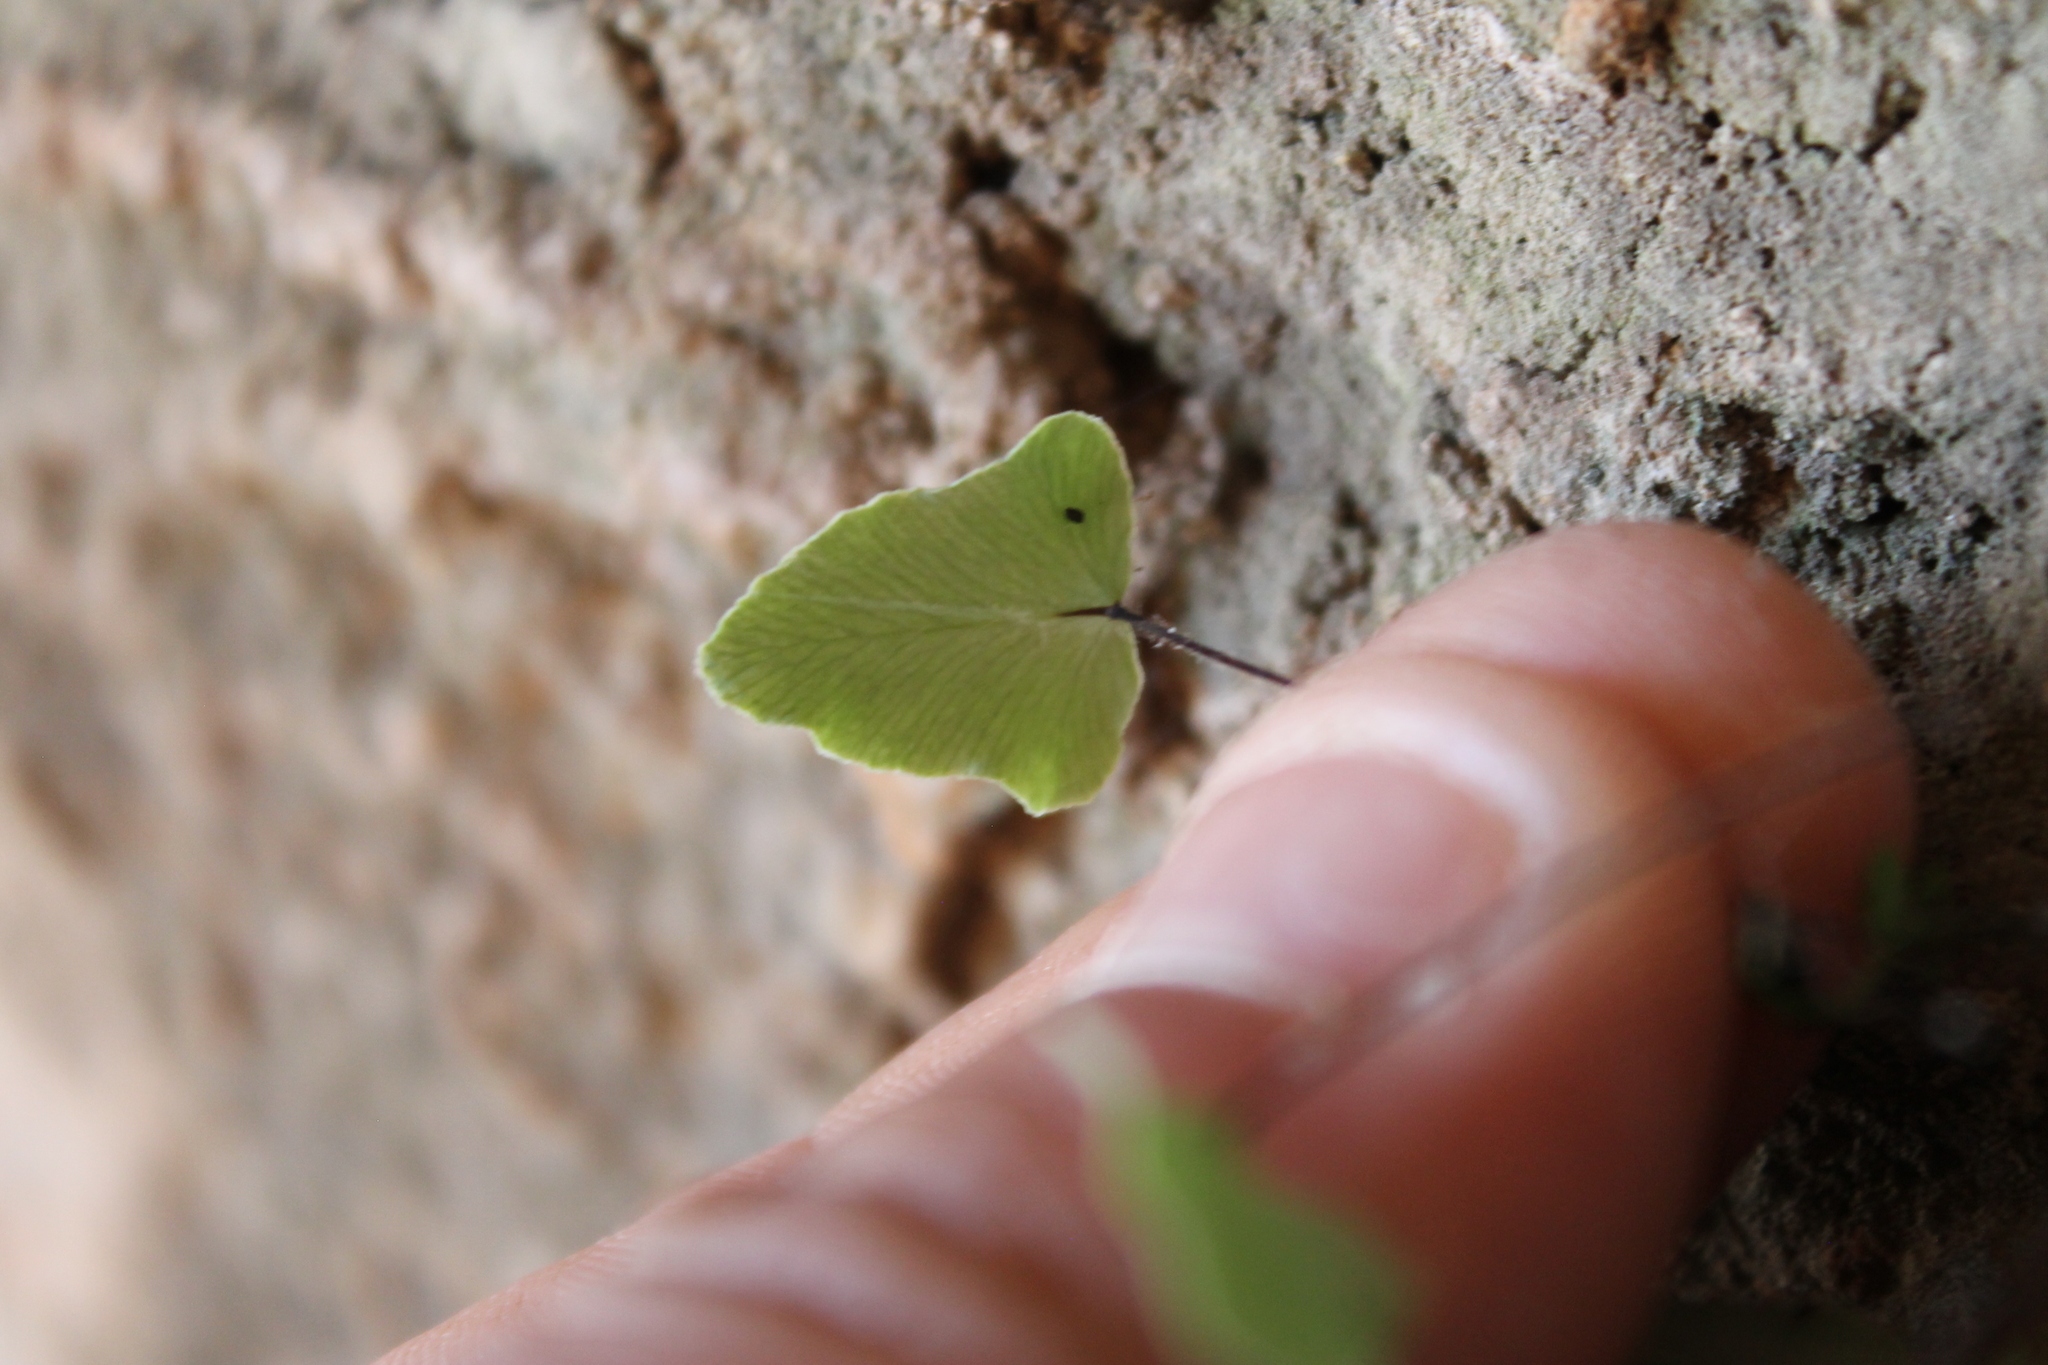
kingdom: Plantae
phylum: Tracheophyta
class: Polypodiopsida
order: Polypodiales
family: Pteridaceae
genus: Pellaea
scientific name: Pellaea atropurpurea
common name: Hairy cliffbrake
